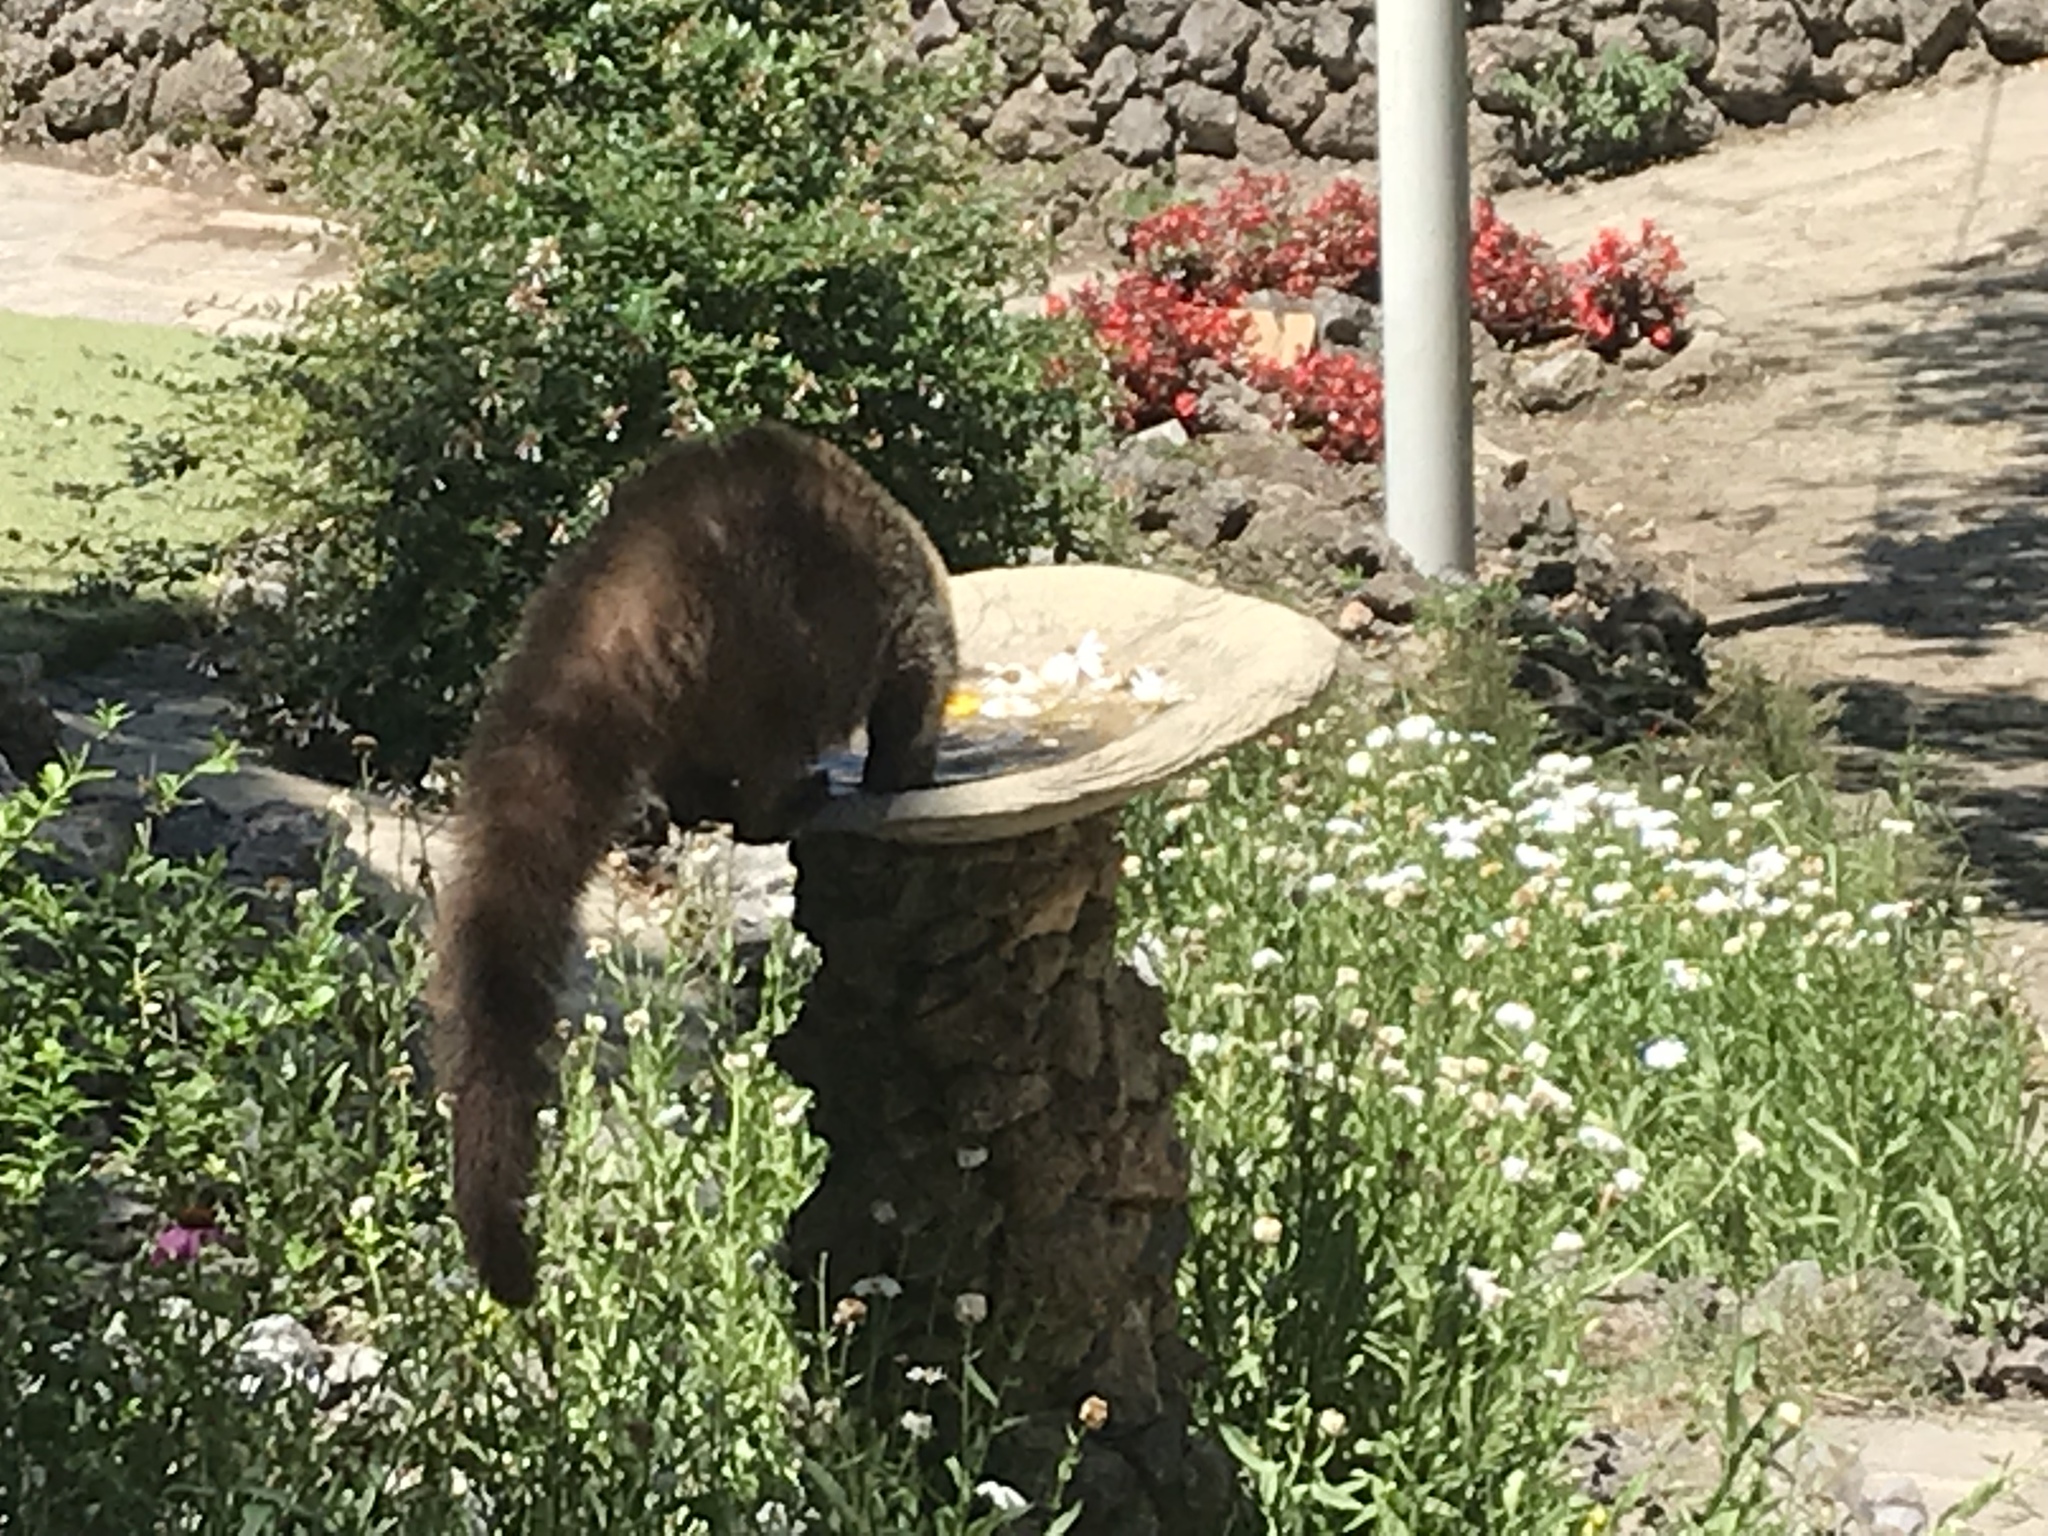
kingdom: Animalia
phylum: Chordata
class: Mammalia
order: Carnivora
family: Procyonidae
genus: Nasua
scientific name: Nasua narica
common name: White-nosed coati
